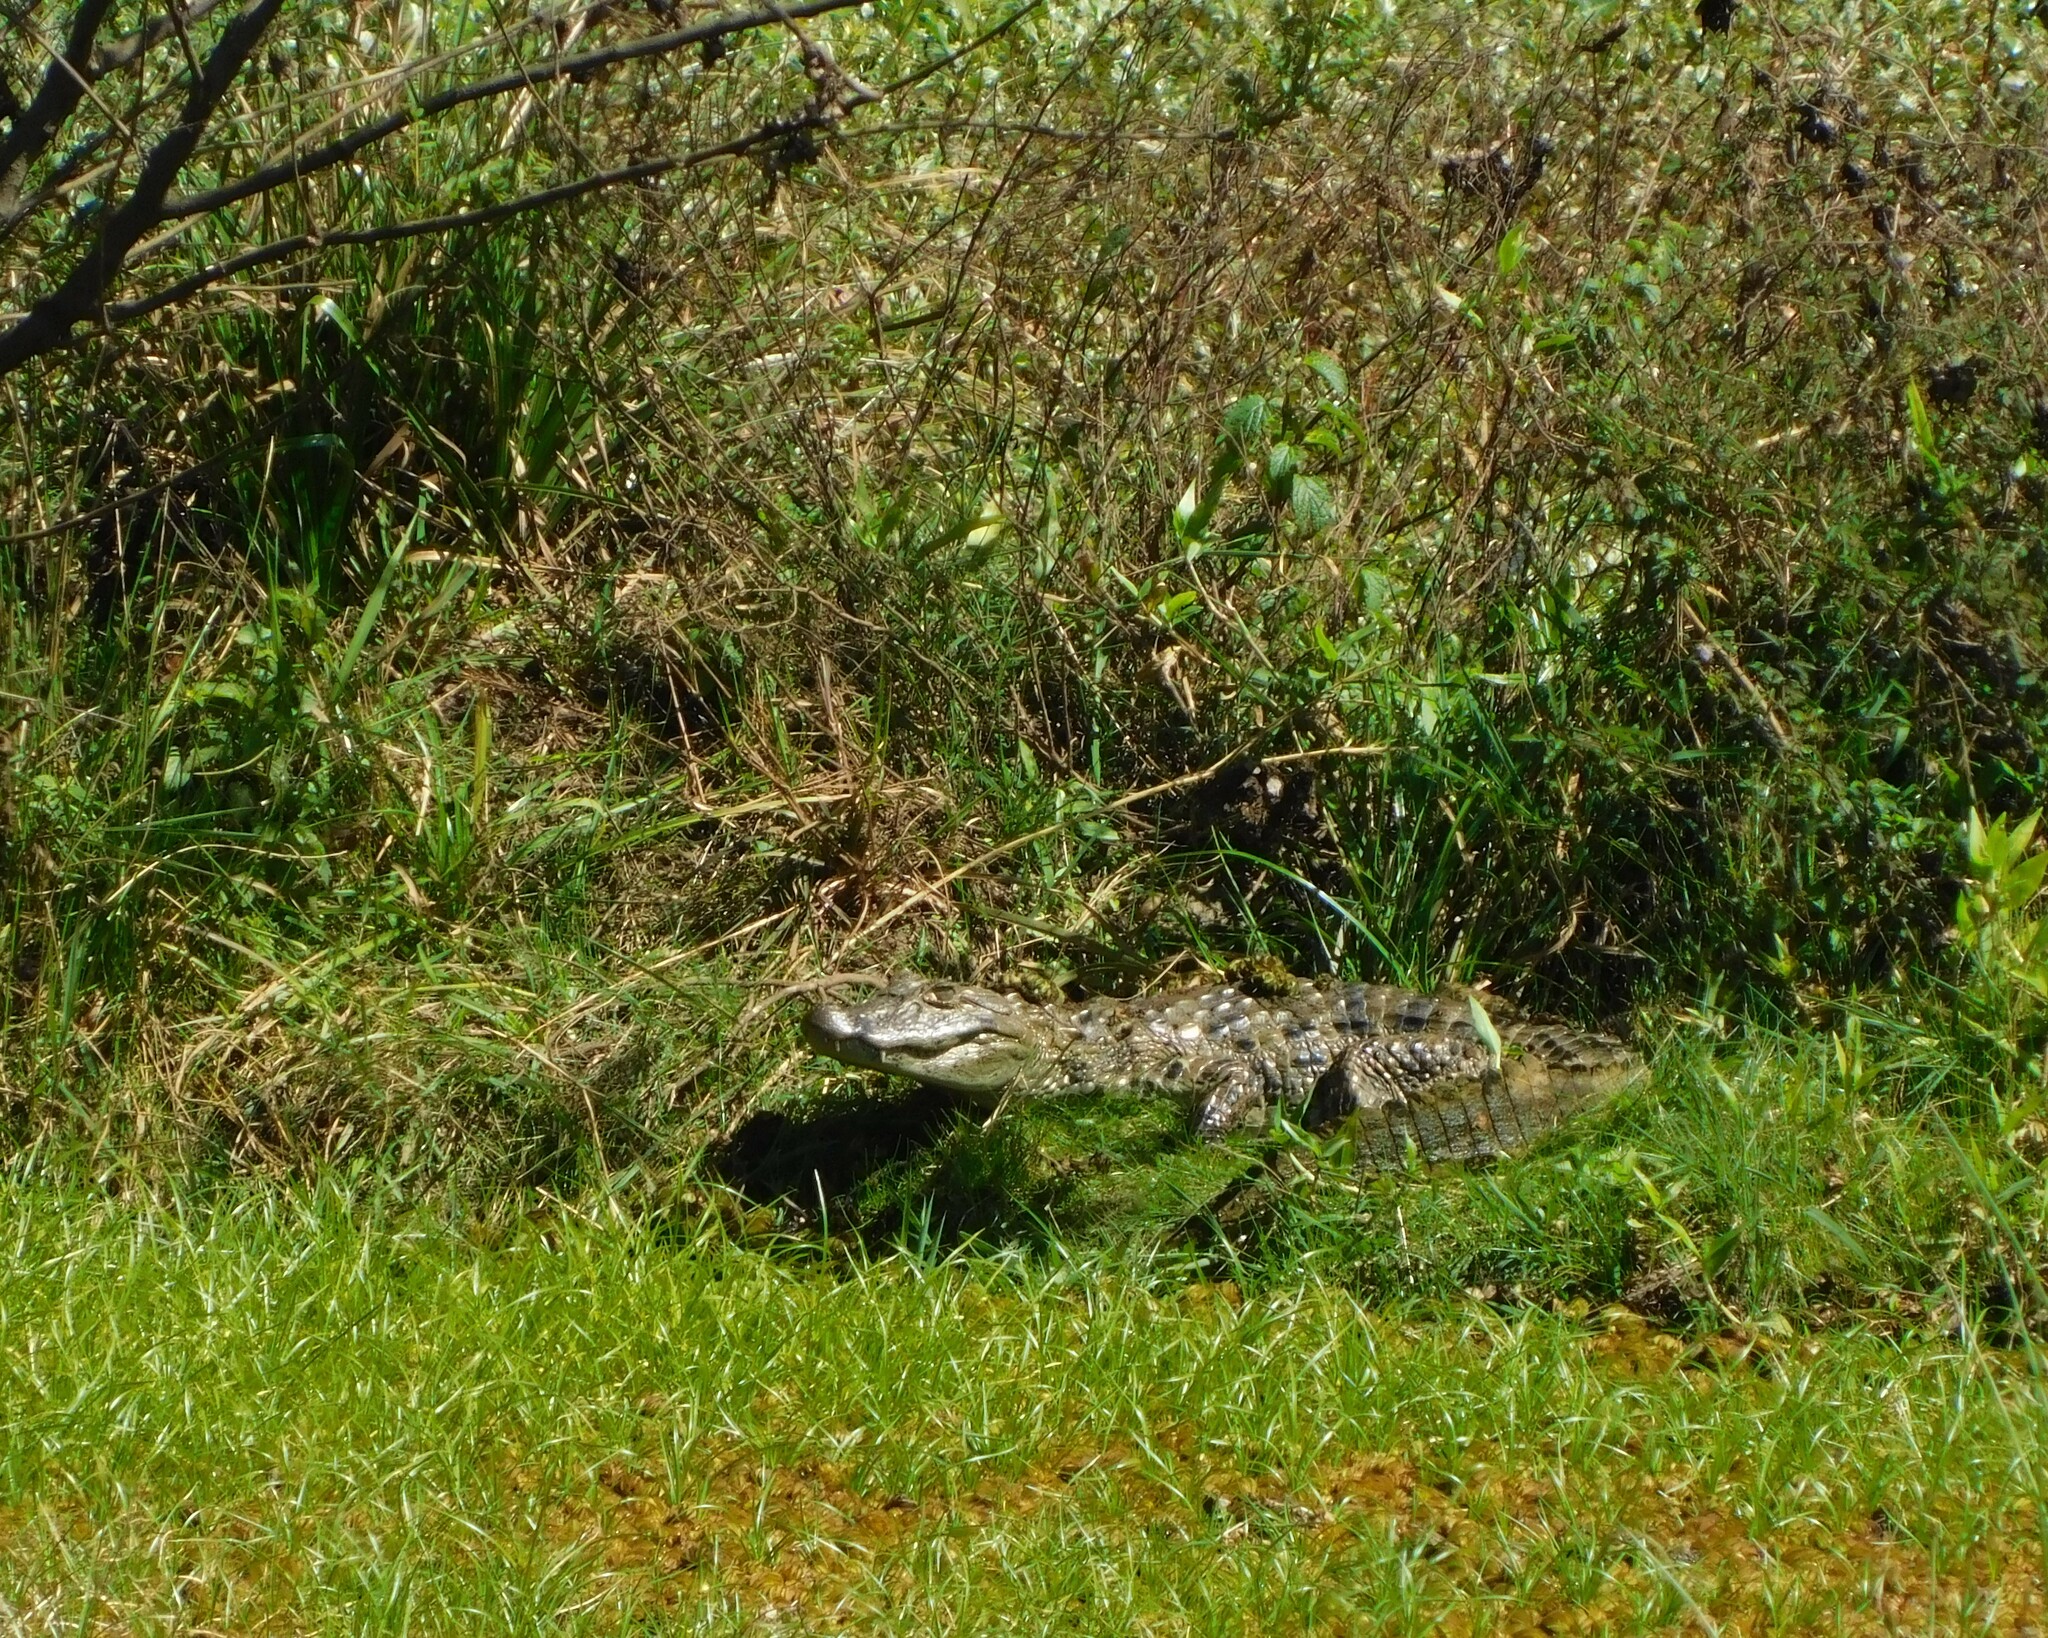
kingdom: Animalia
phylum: Chordata
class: Crocodylia
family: Alligatoridae
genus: Caiman
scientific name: Caiman latirostris
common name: Broad-snouted caiman
